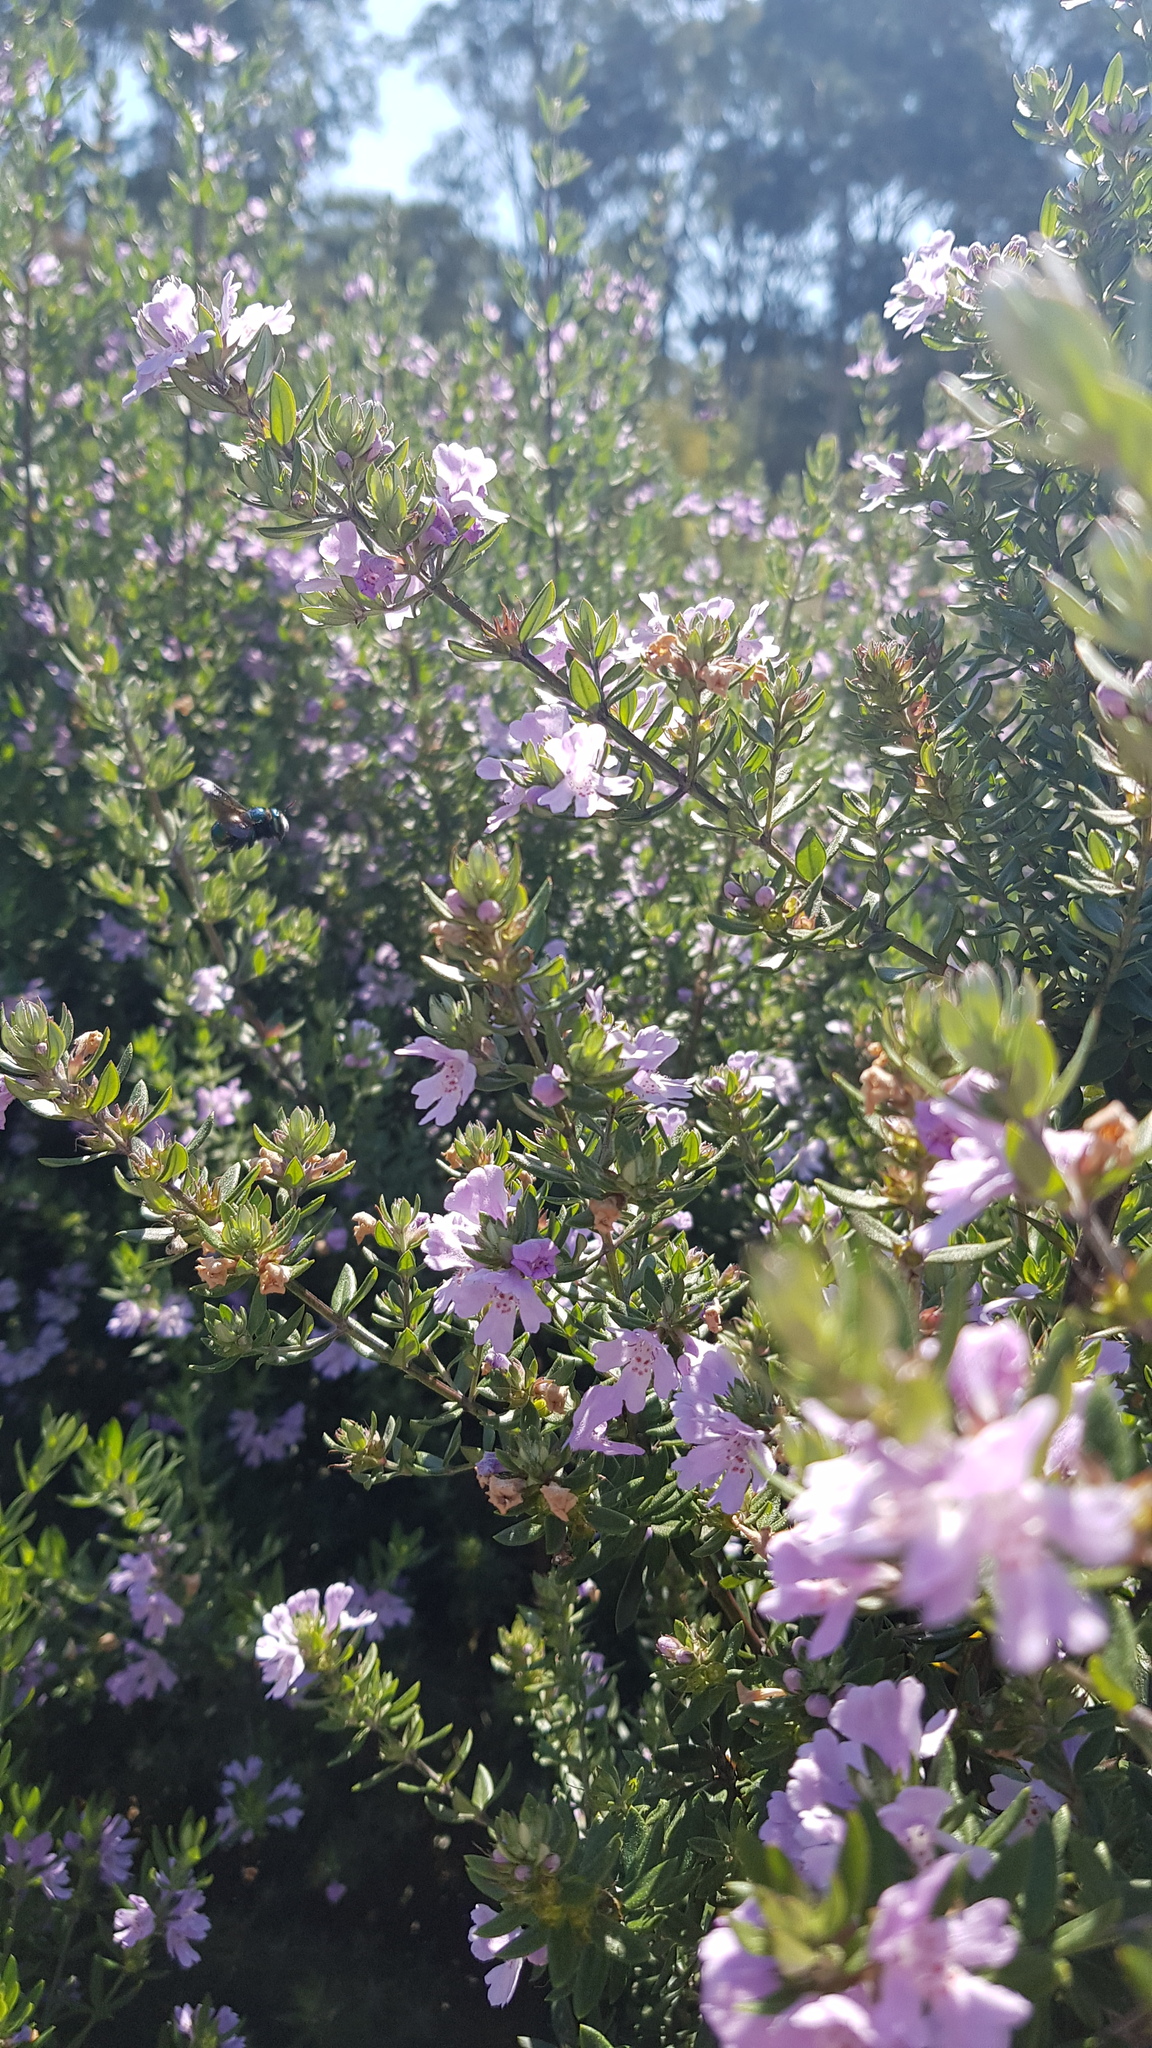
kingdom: Animalia
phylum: Arthropoda
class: Insecta
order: Hymenoptera
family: Apidae
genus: Xylocopa
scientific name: Xylocopa aeratus
